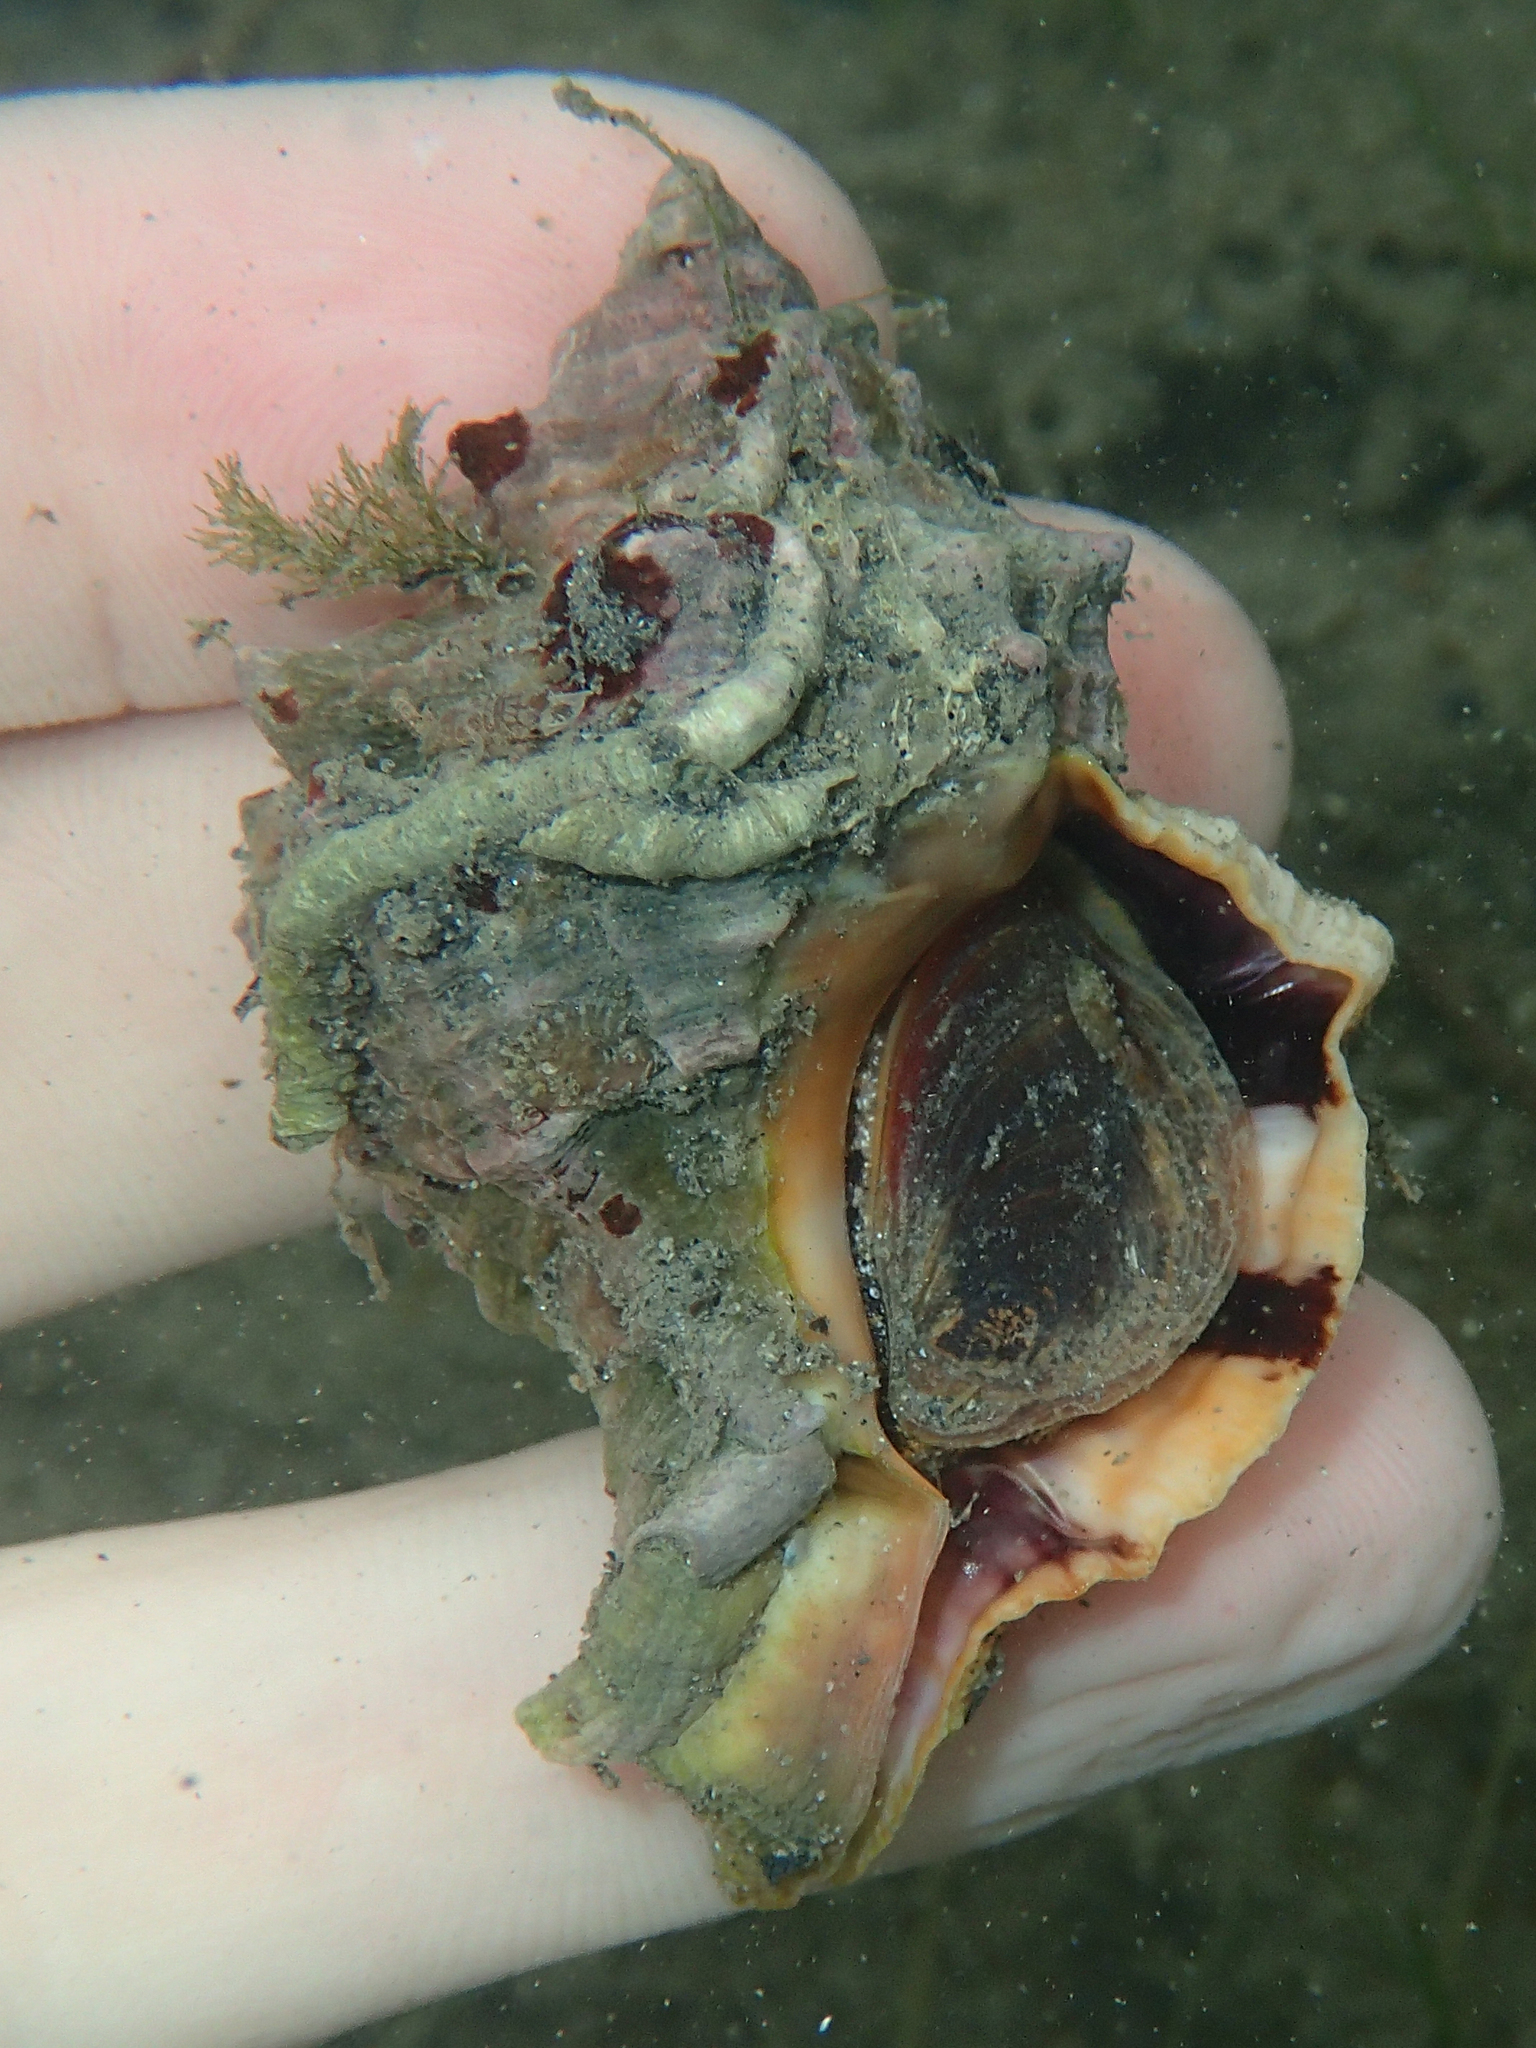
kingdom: Animalia
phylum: Mollusca
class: Gastropoda
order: Neogastropoda
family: Muricidae
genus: Hexaplex
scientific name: Hexaplex trunculus
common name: Banded dye-murex
